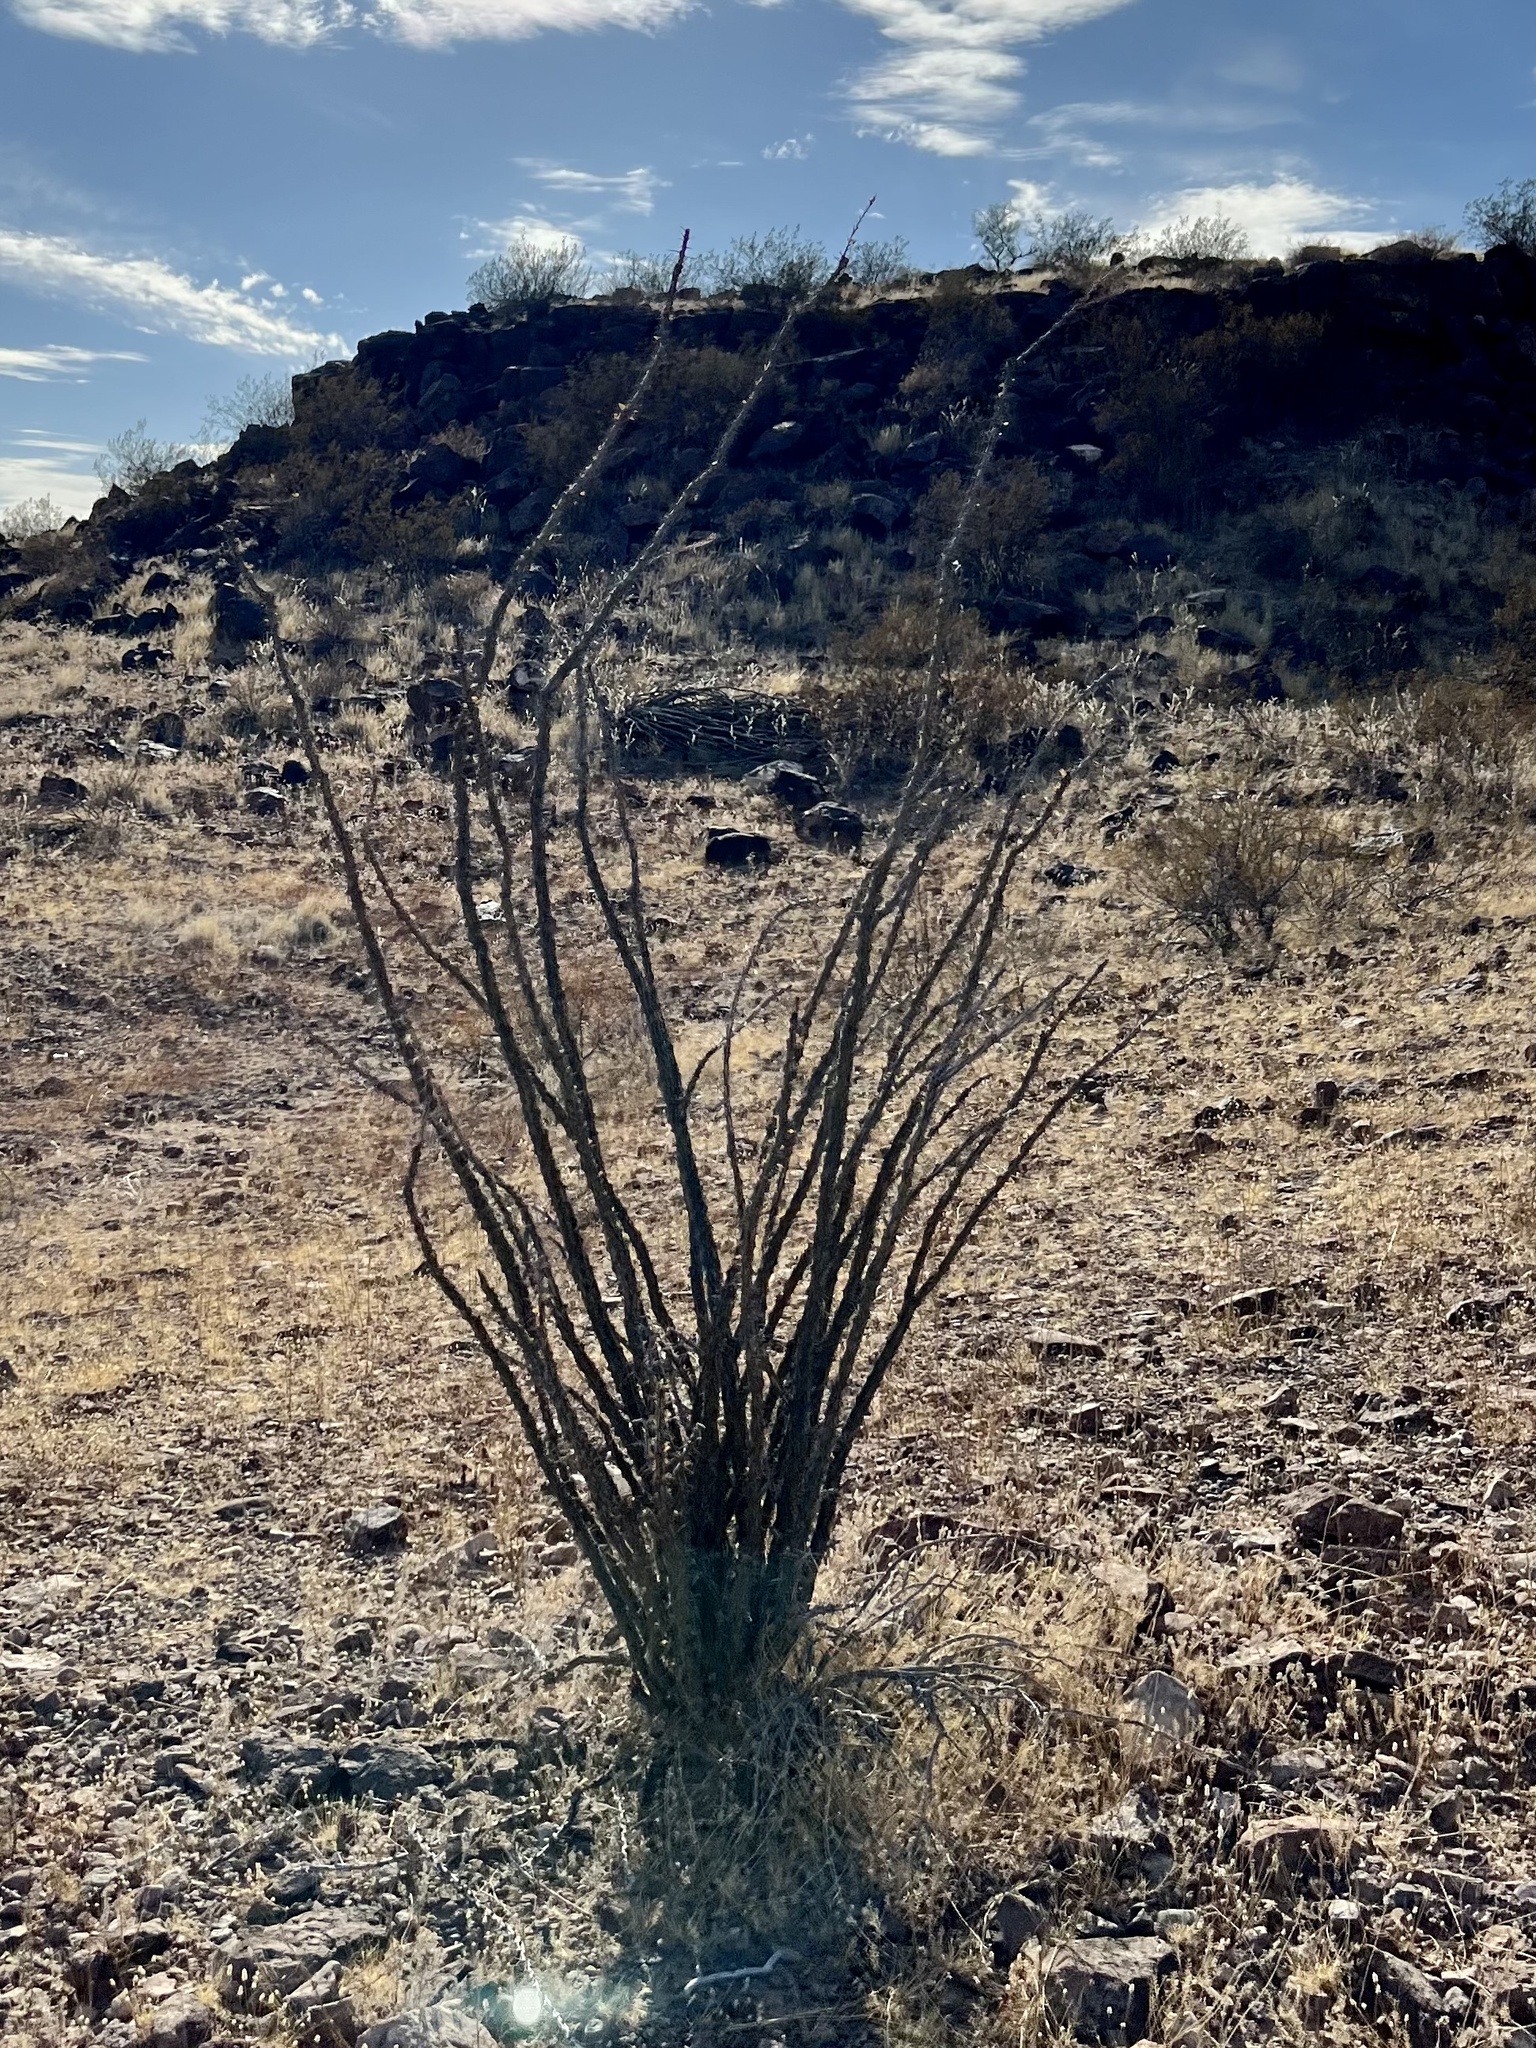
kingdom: Plantae
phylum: Tracheophyta
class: Magnoliopsida
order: Ericales
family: Fouquieriaceae
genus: Fouquieria
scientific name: Fouquieria splendens
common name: Vine-cactus
